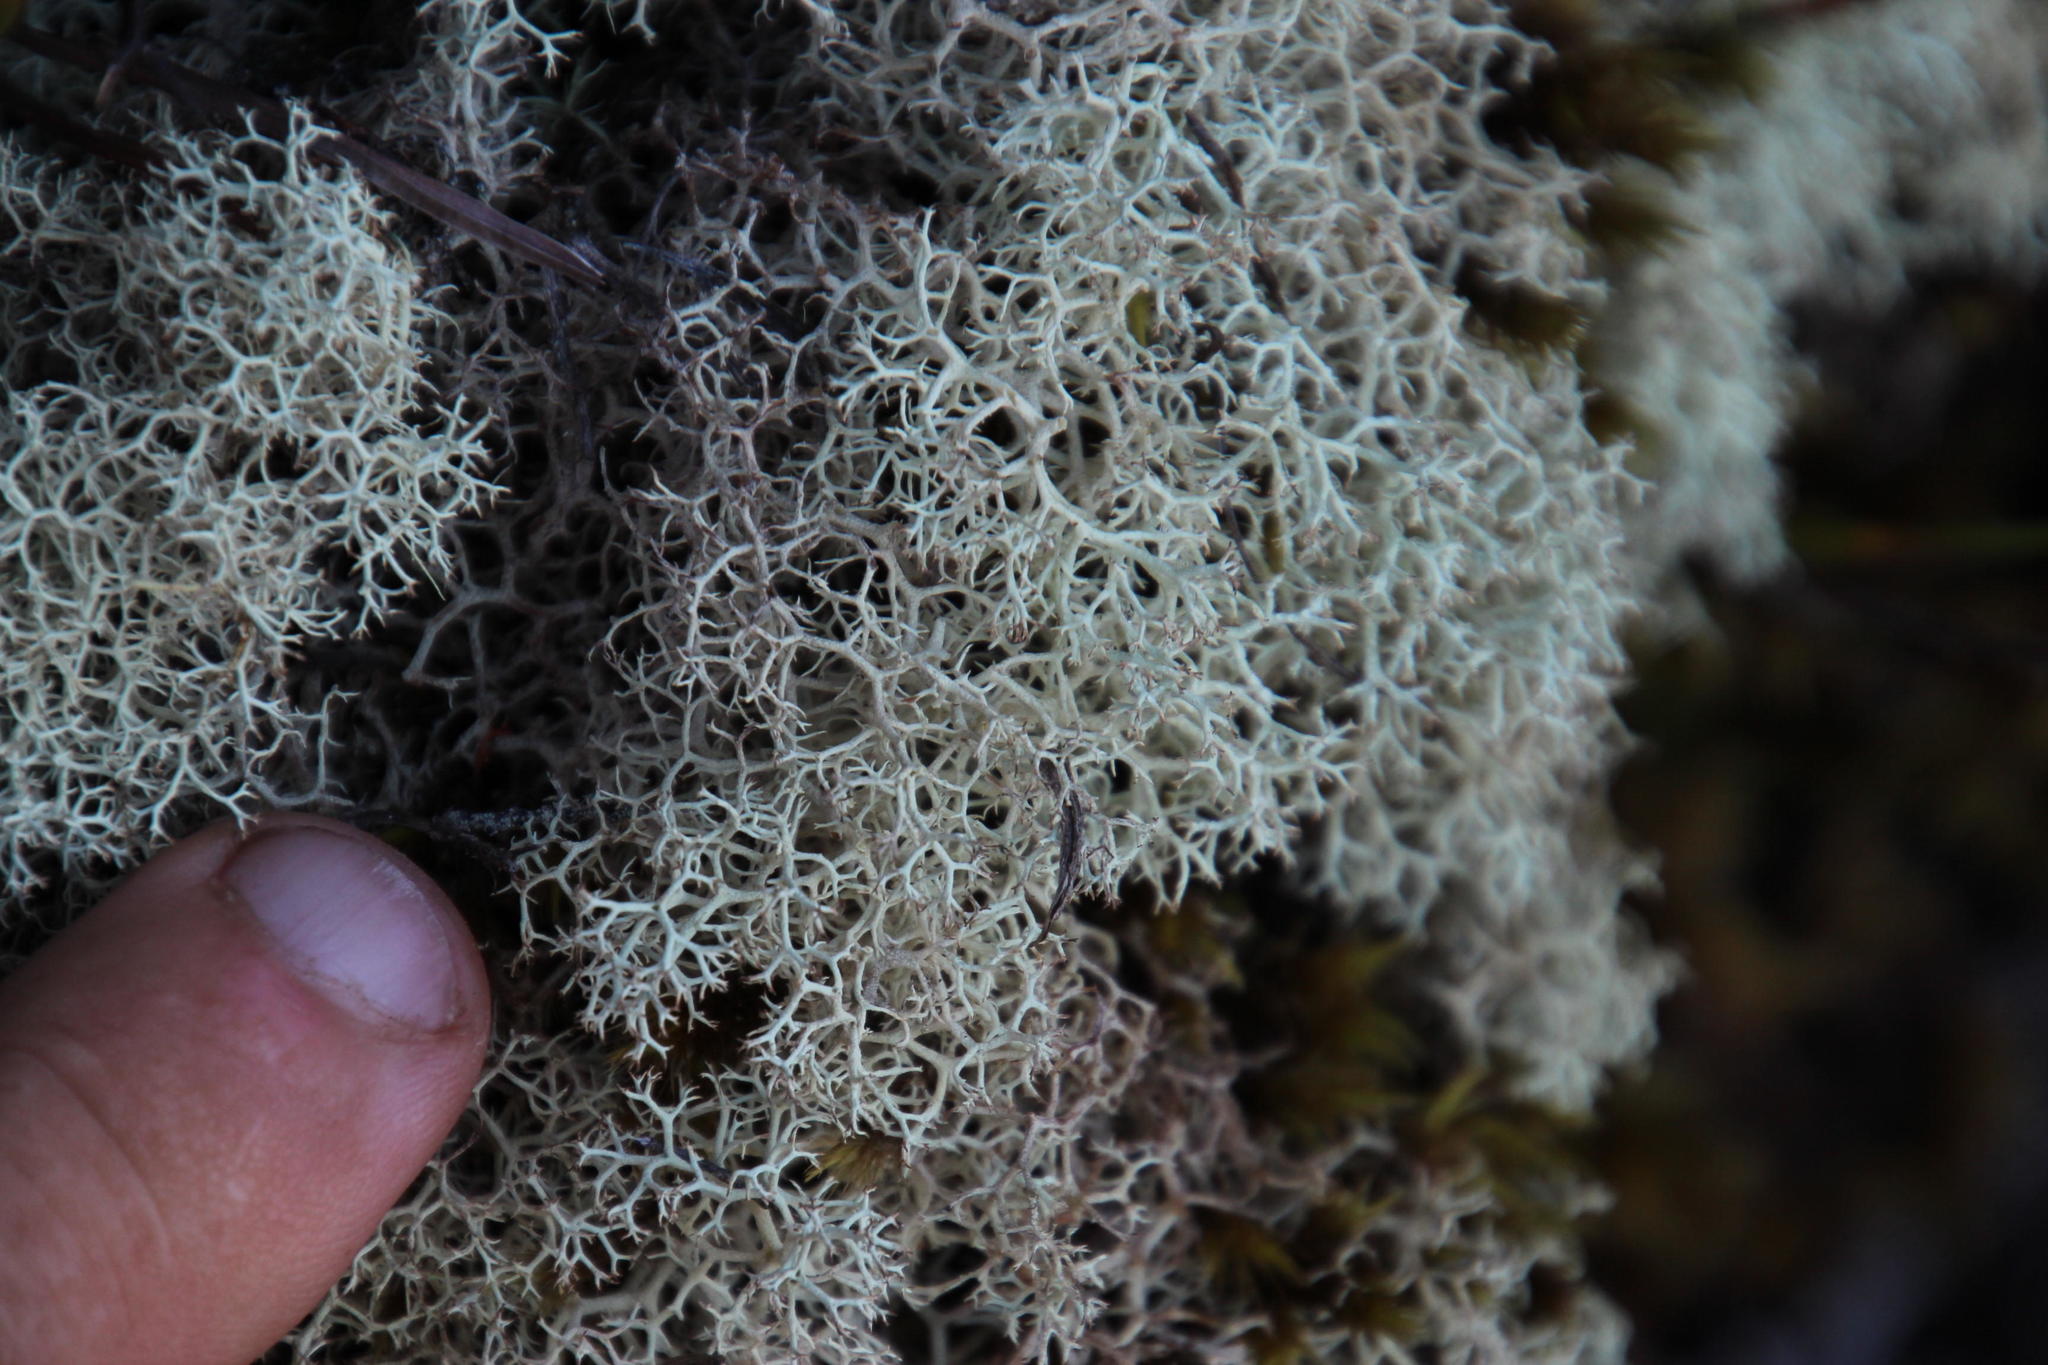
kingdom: Fungi
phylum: Ascomycota
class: Lecanoromycetes
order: Lecanorales
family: Cladoniaceae
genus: Cladonia
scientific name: Cladonia confusa
